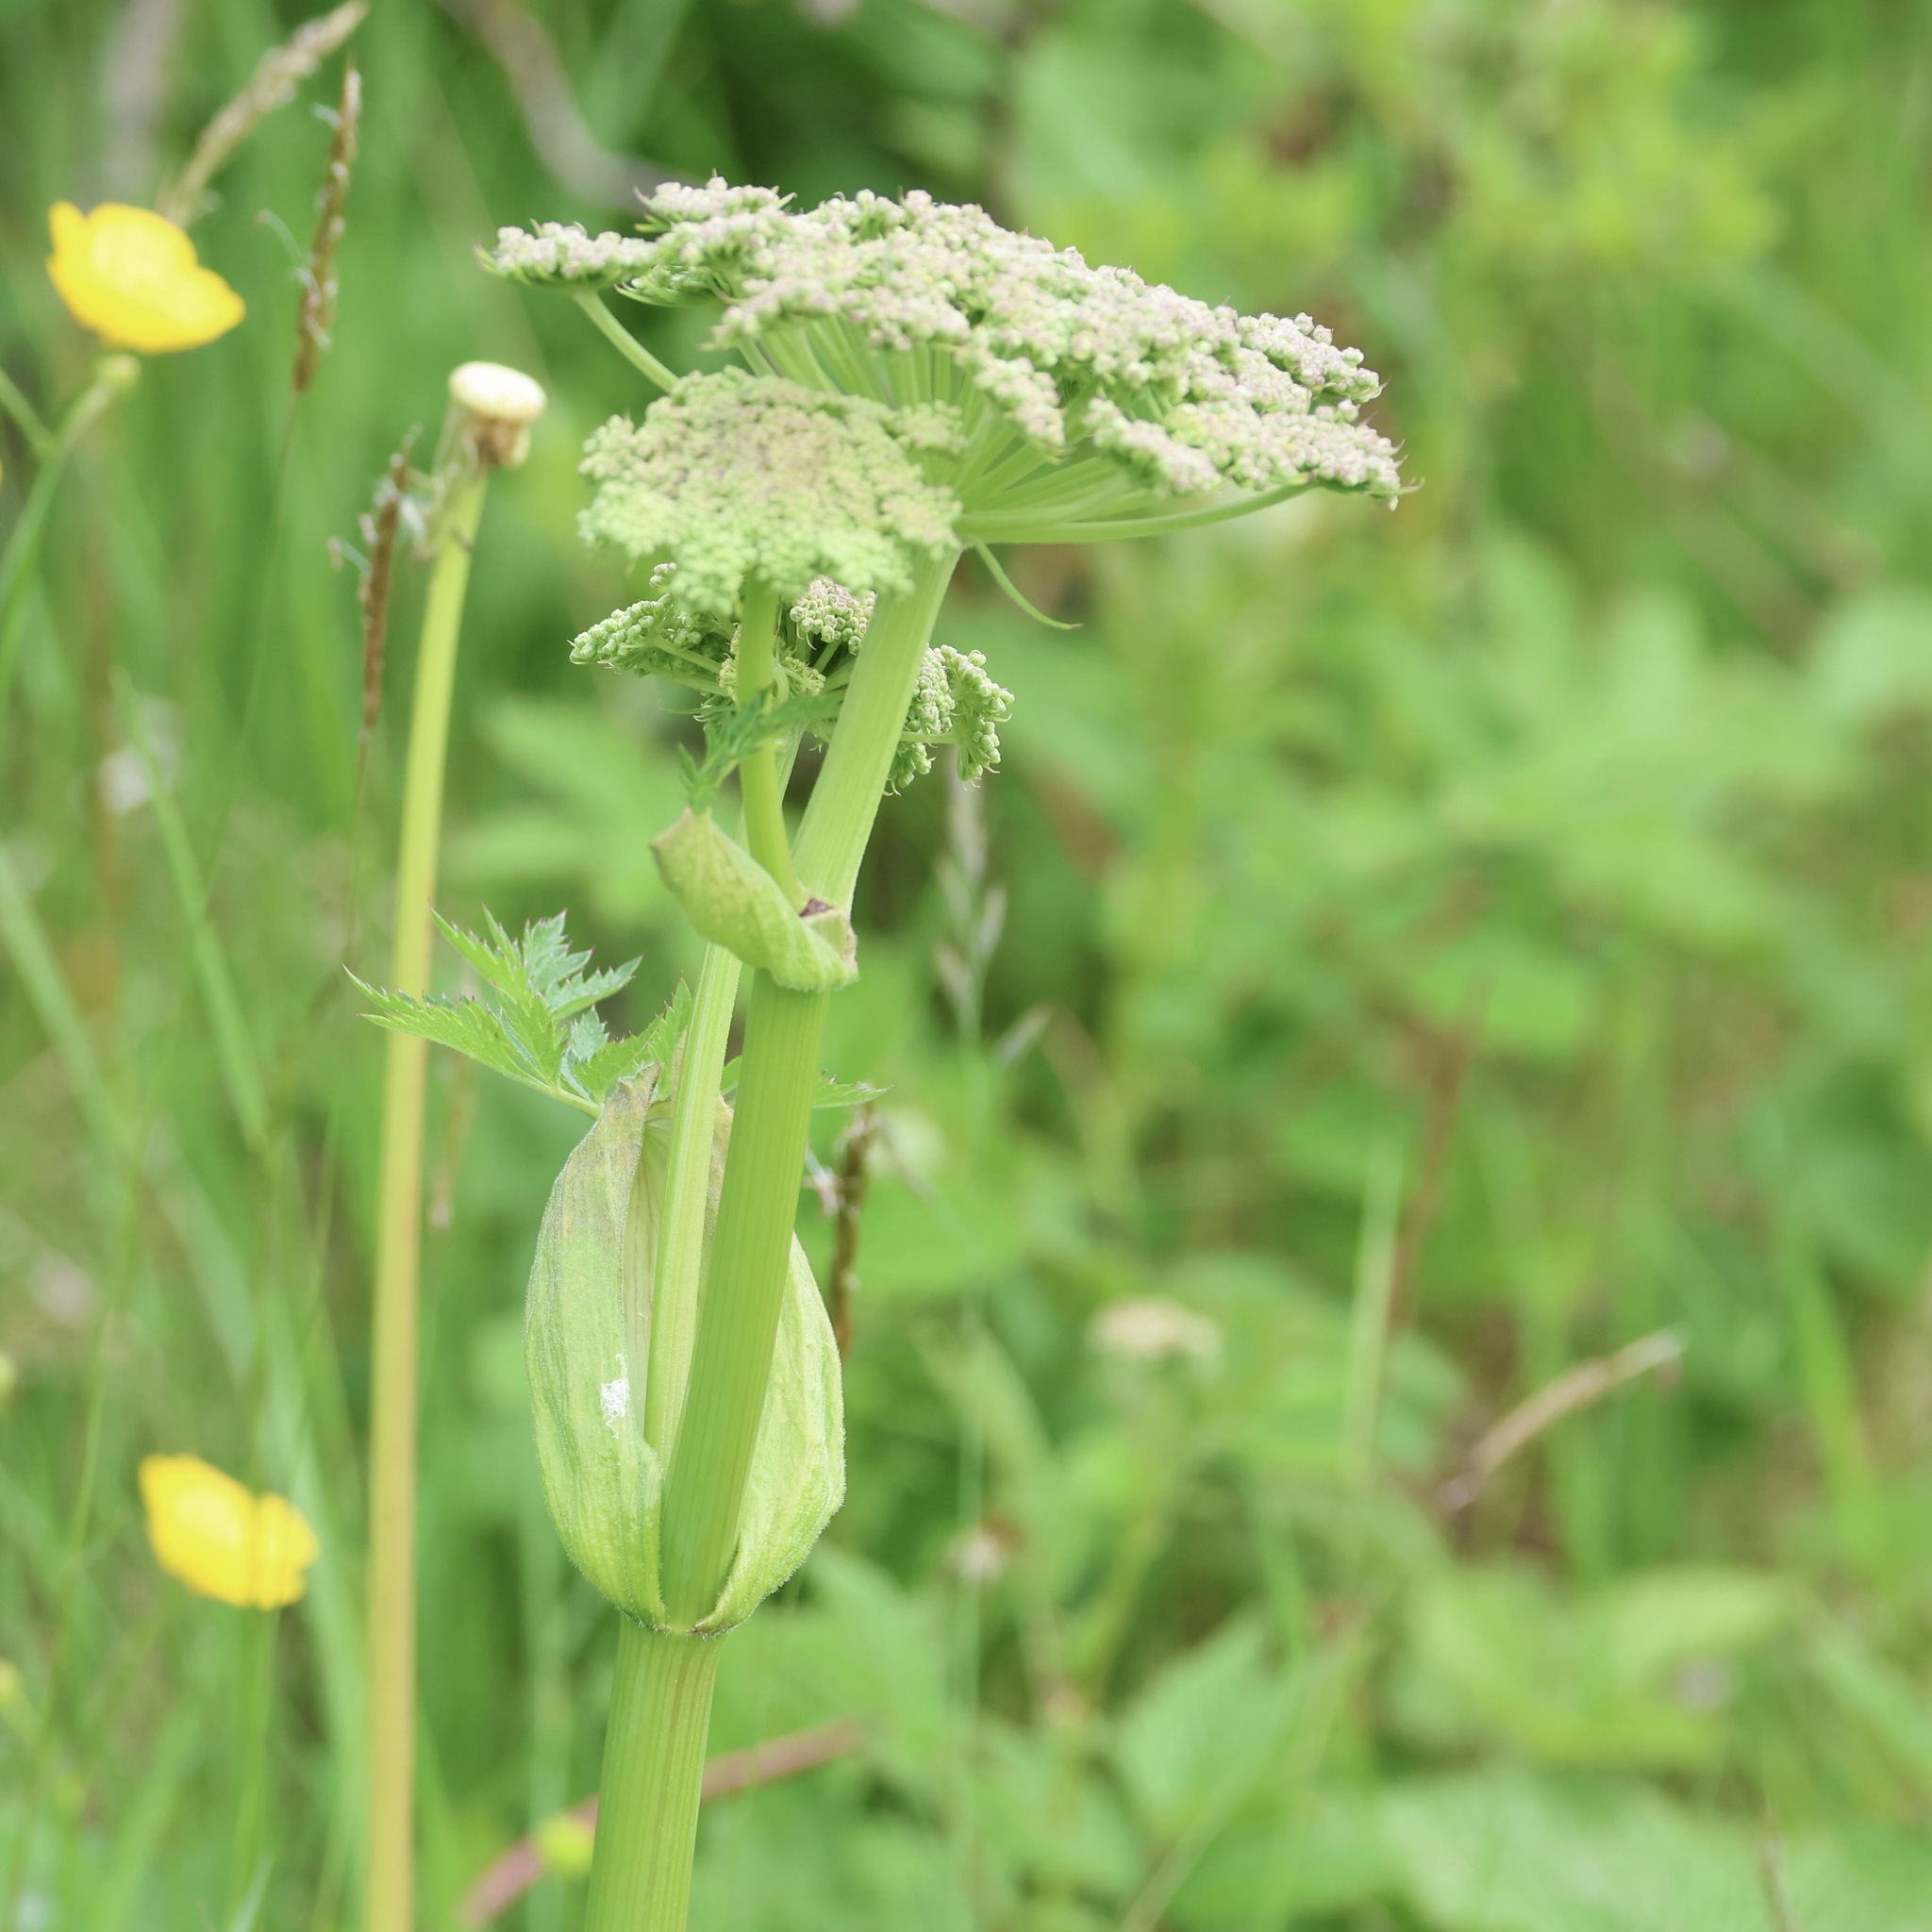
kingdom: Plantae
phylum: Tracheophyta
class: Magnoliopsida
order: Apiales
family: Apiaceae
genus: Angelica
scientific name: Angelica sylvestris
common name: Wild angelica
